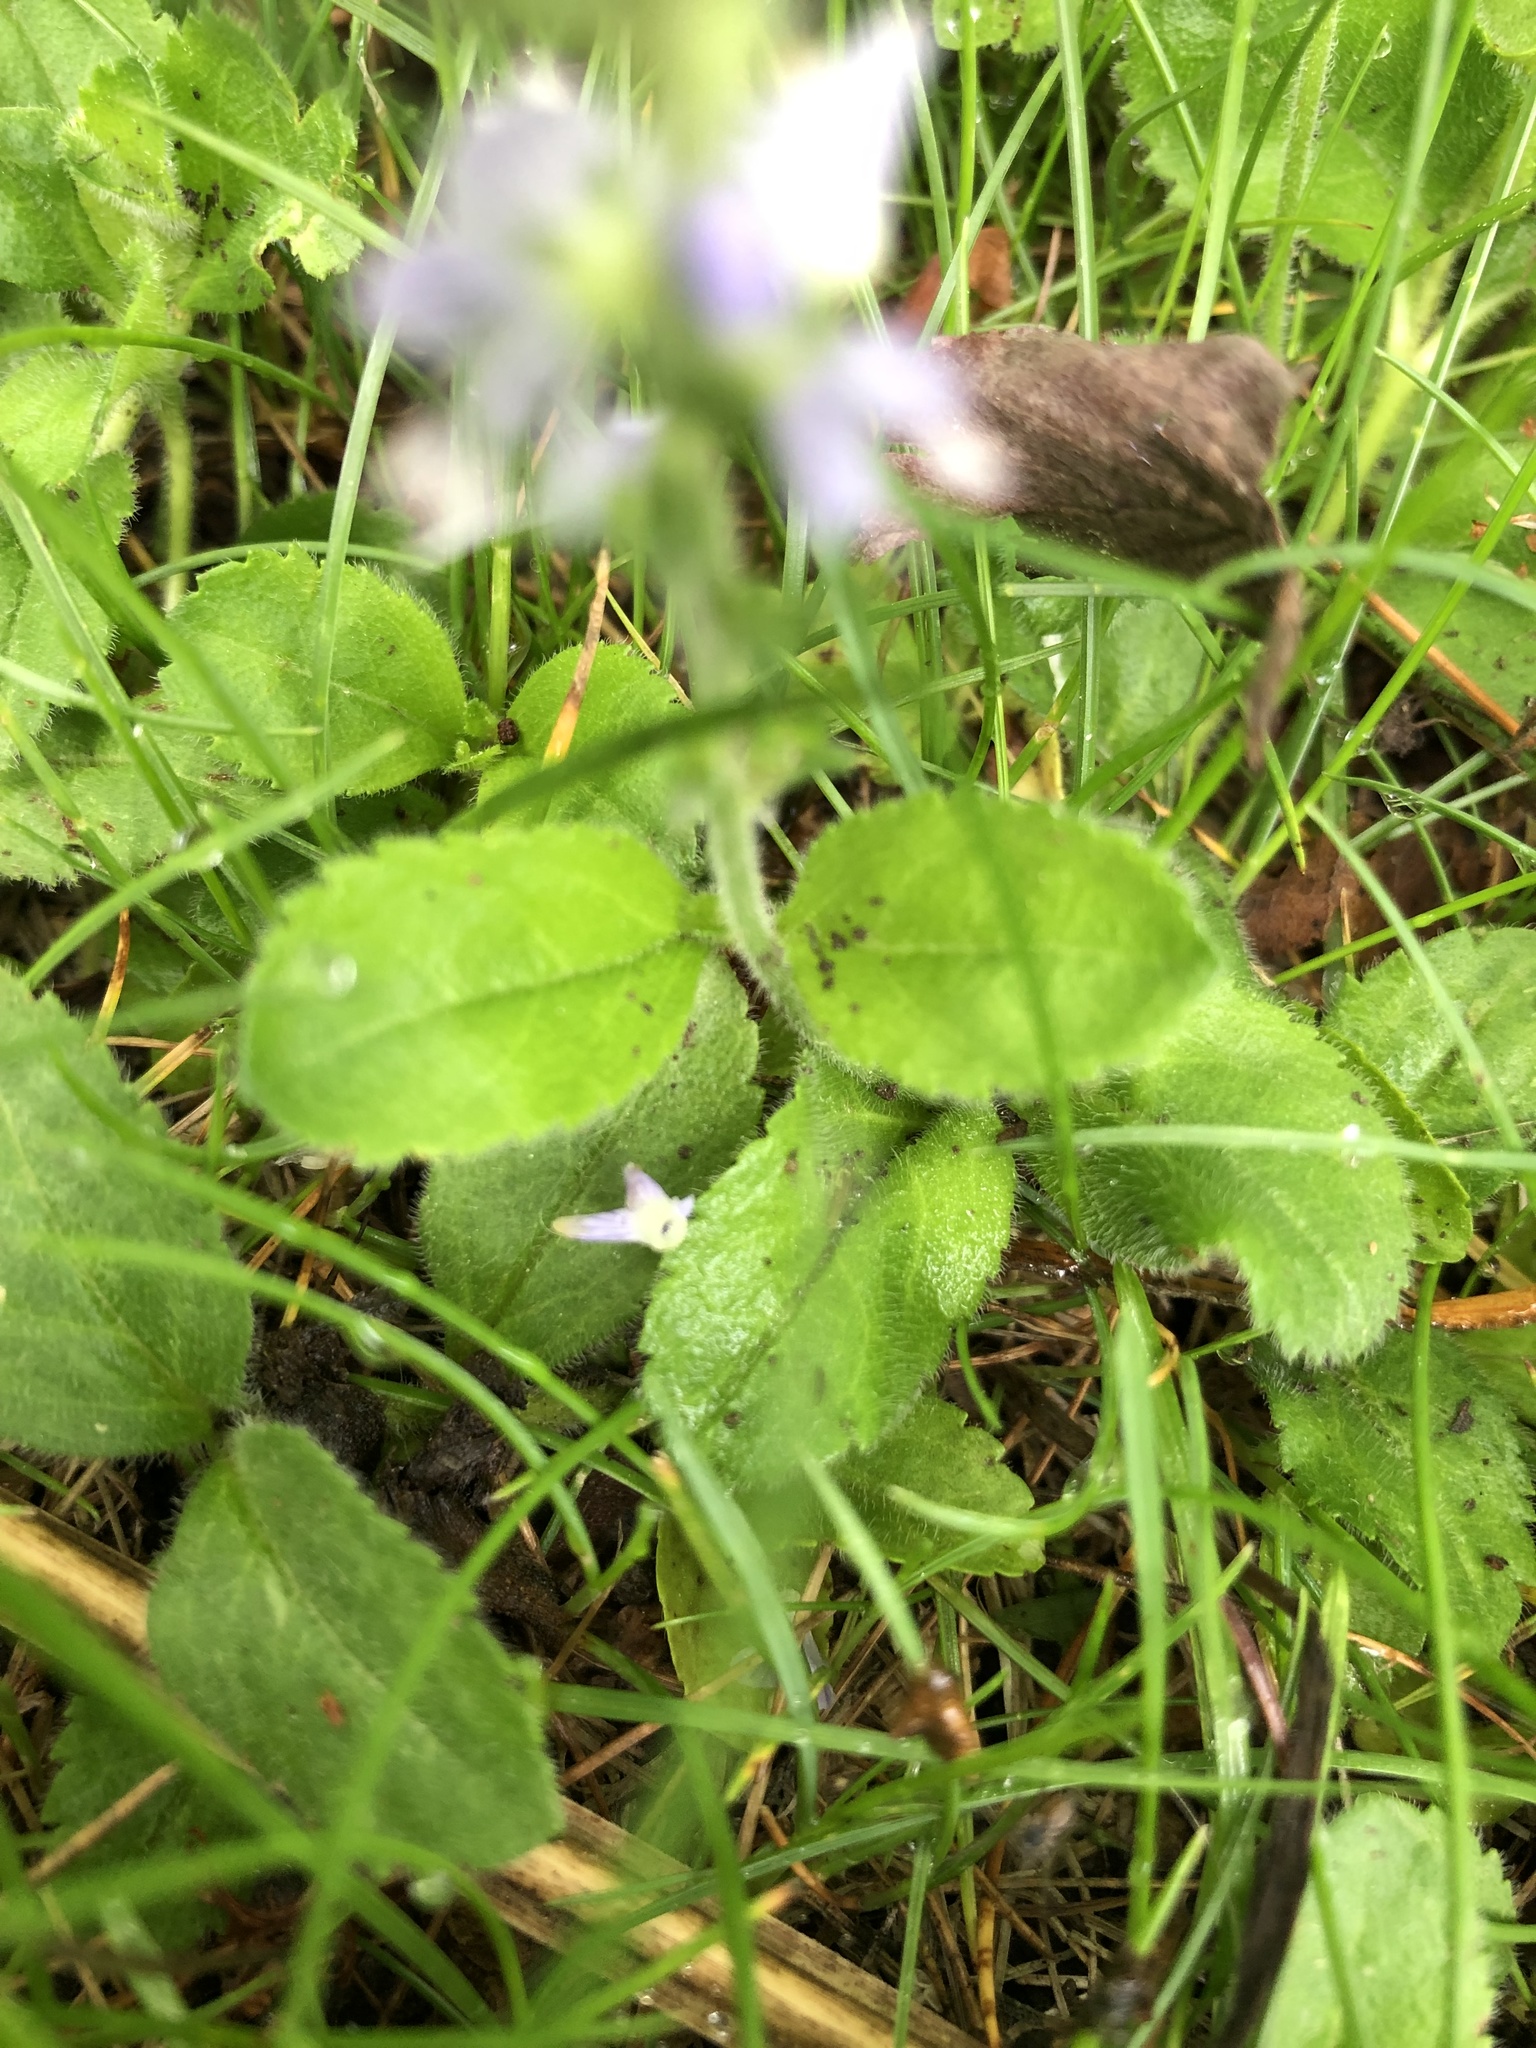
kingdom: Plantae
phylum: Tracheophyta
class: Magnoliopsida
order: Lamiales
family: Plantaginaceae
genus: Veronica
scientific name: Veronica officinalis
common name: Common speedwell
